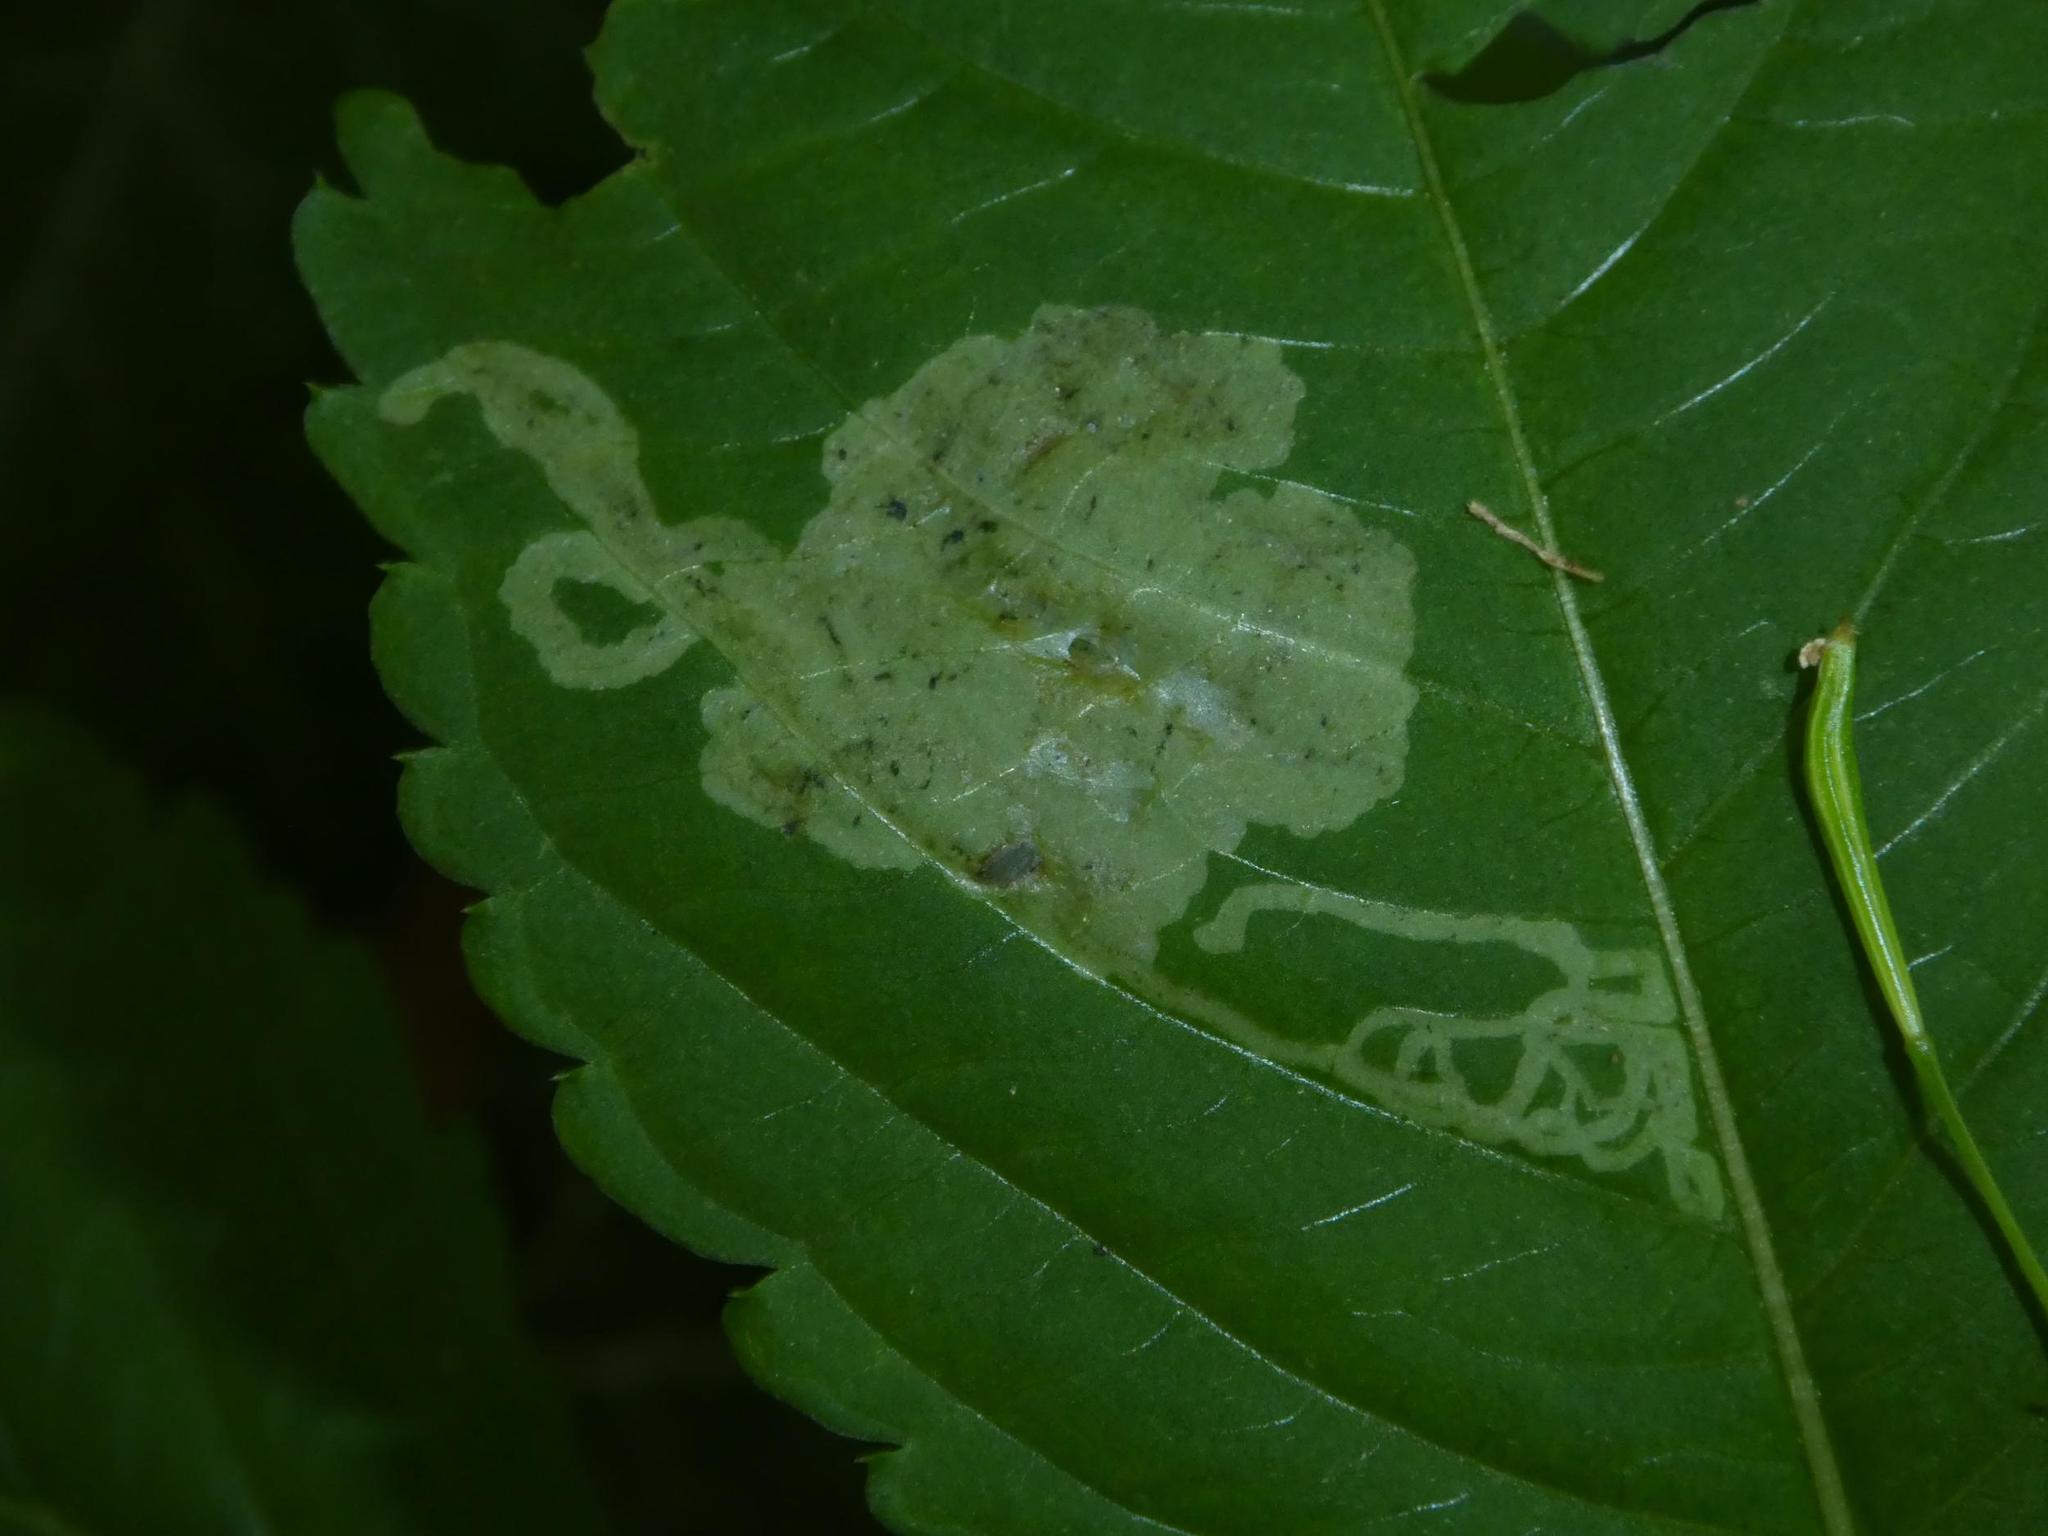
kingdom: Animalia
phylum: Arthropoda
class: Insecta
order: Diptera
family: Agromyzidae
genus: Phytoliriomyza
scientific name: Phytoliriomyza melampyga
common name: Jewelweed leaf-miner fly
